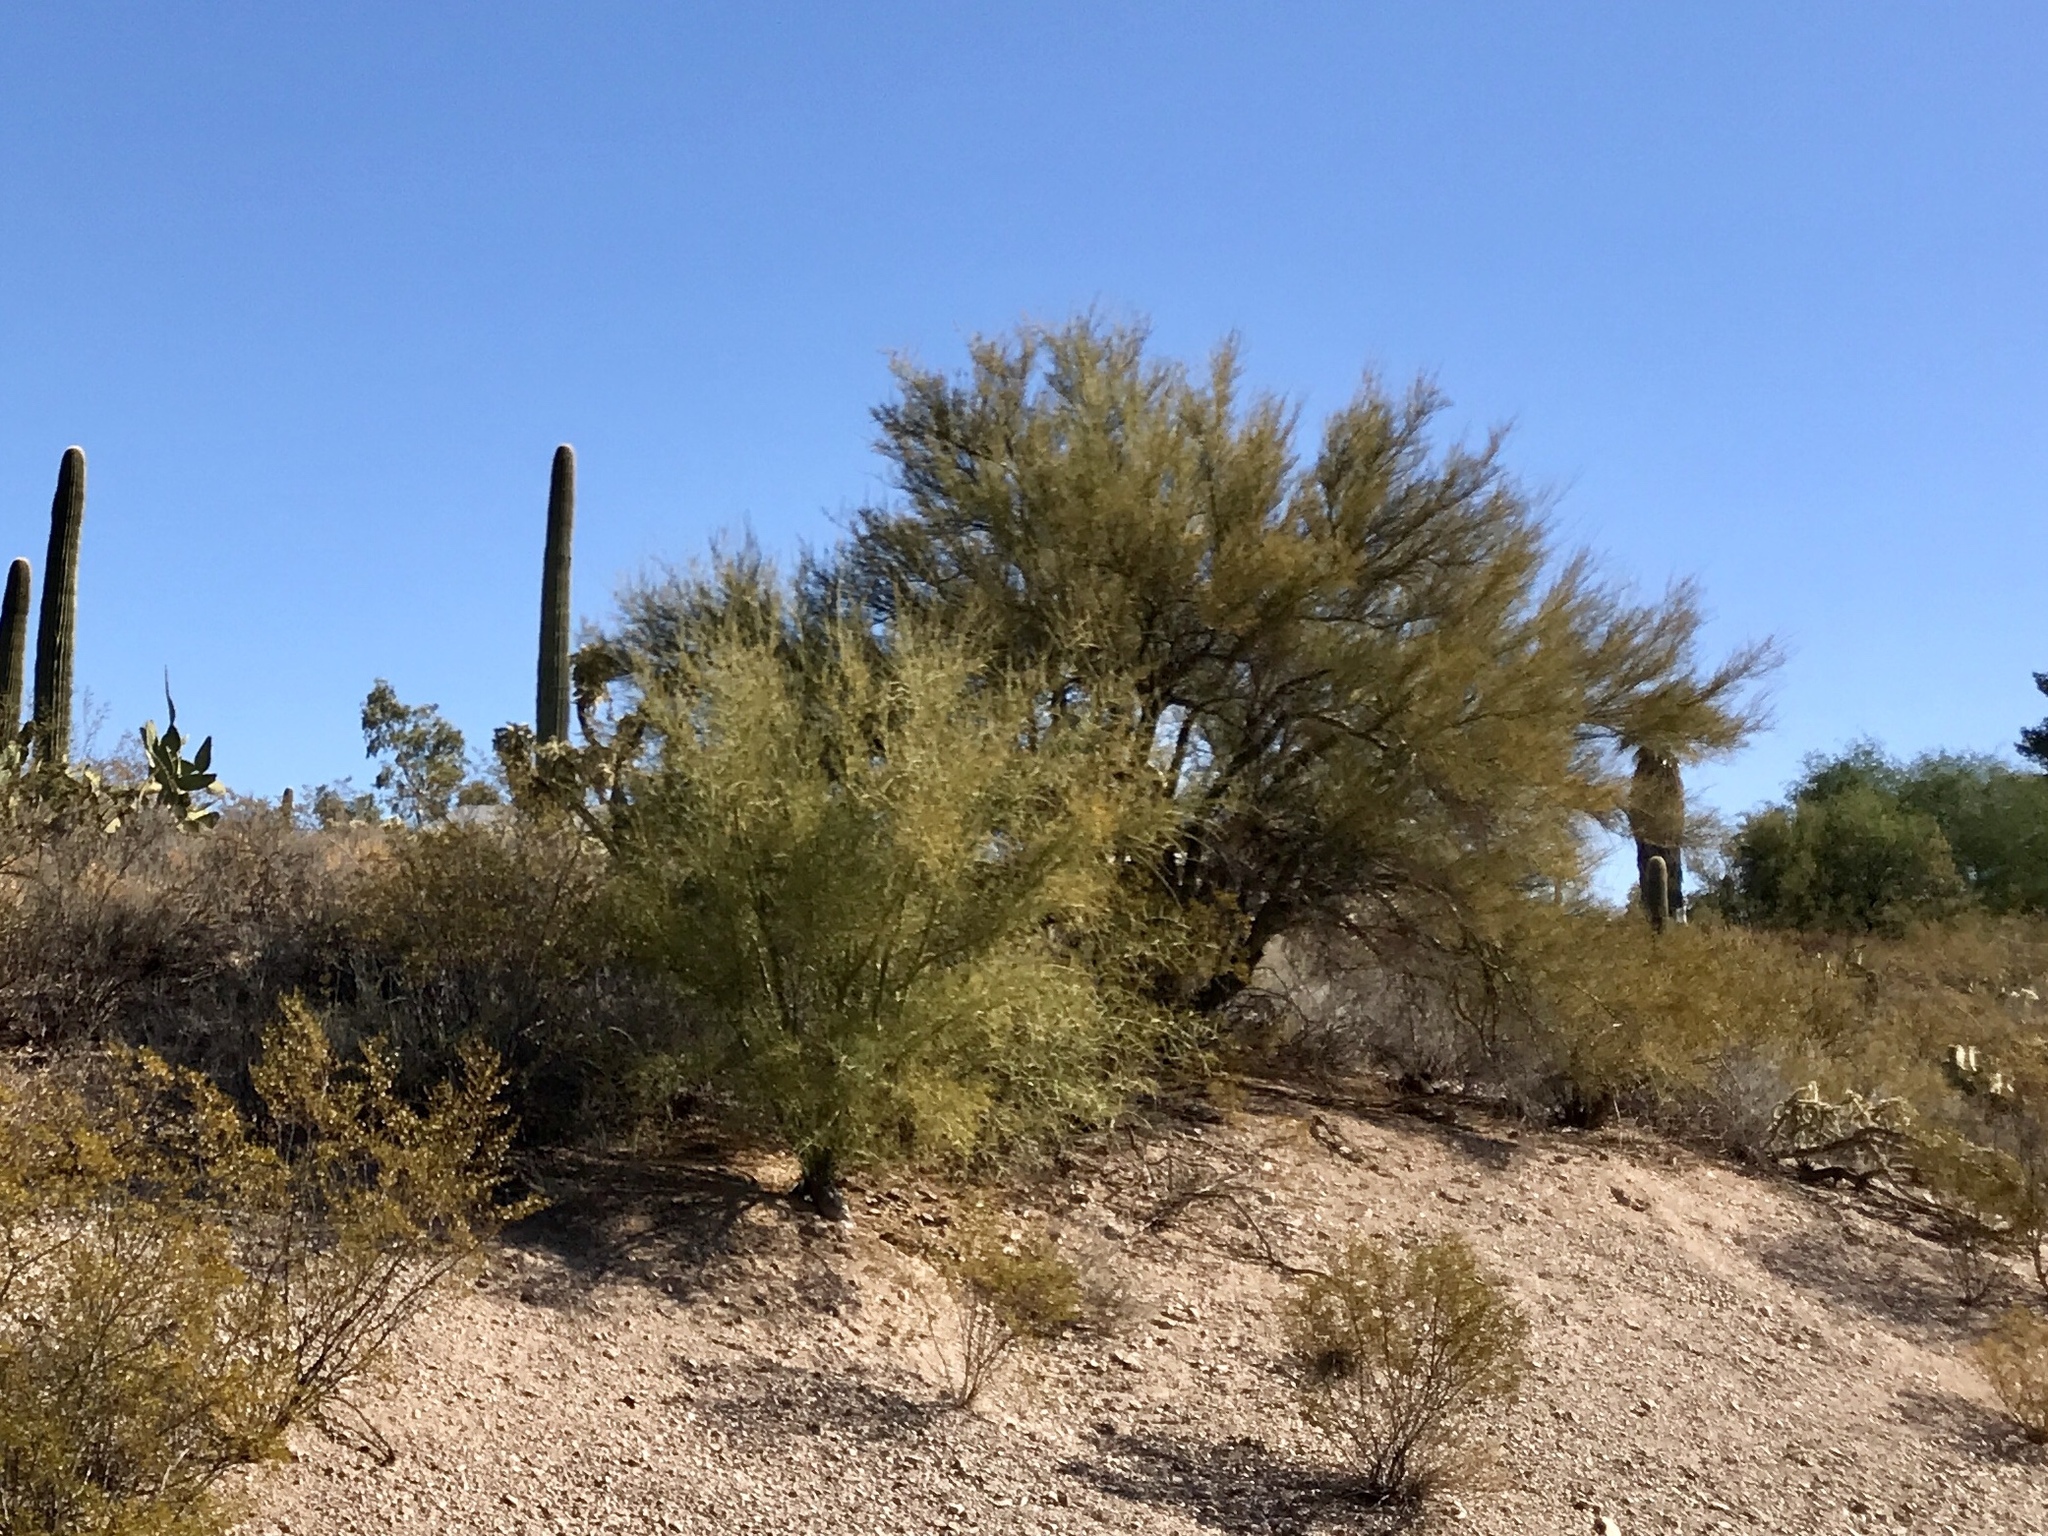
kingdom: Plantae
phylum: Tracheophyta
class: Magnoliopsida
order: Fabales
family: Fabaceae
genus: Parkinsonia
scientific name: Parkinsonia microphylla
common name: Yellow paloverde
